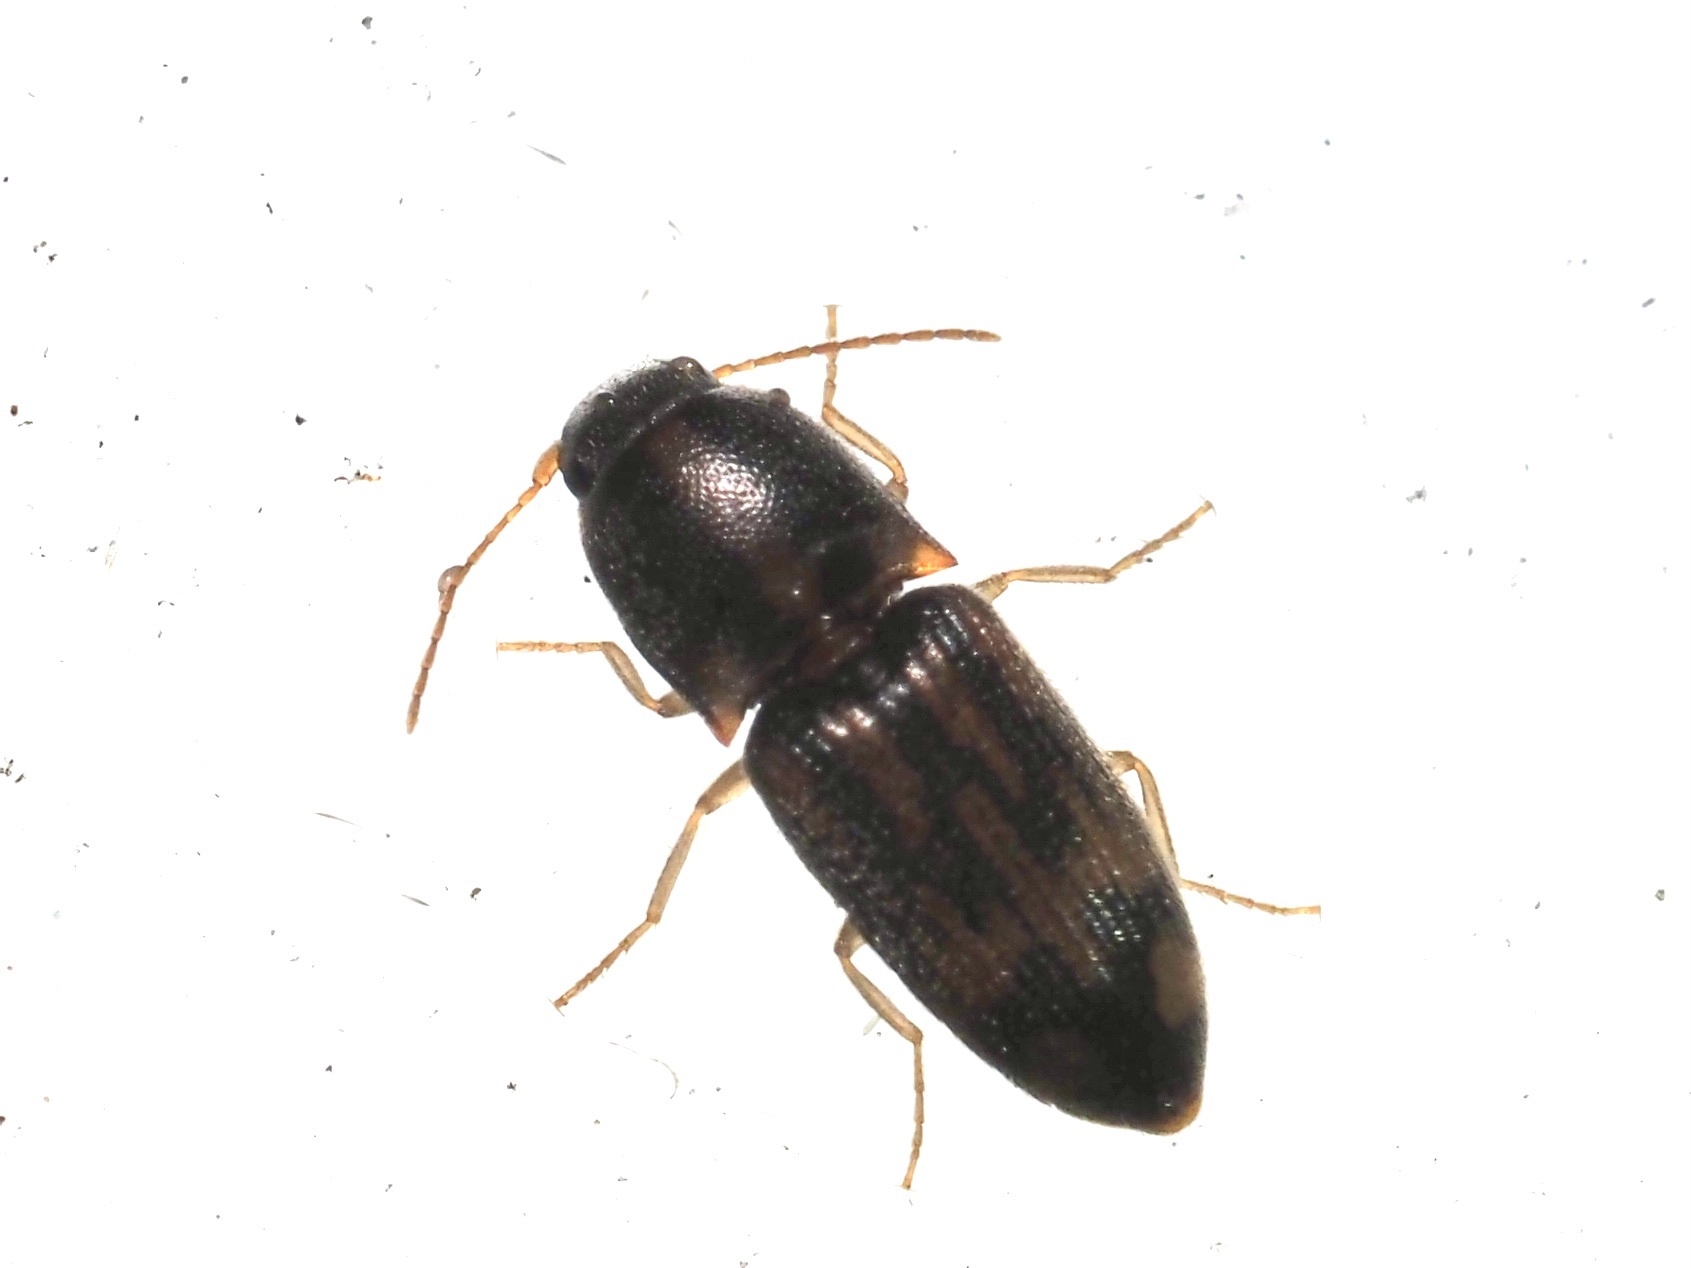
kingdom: Animalia
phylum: Arthropoda
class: Insecta
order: Coleoptera
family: Elateridae
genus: Monocrepidius
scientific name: Monocrepidius bellus
